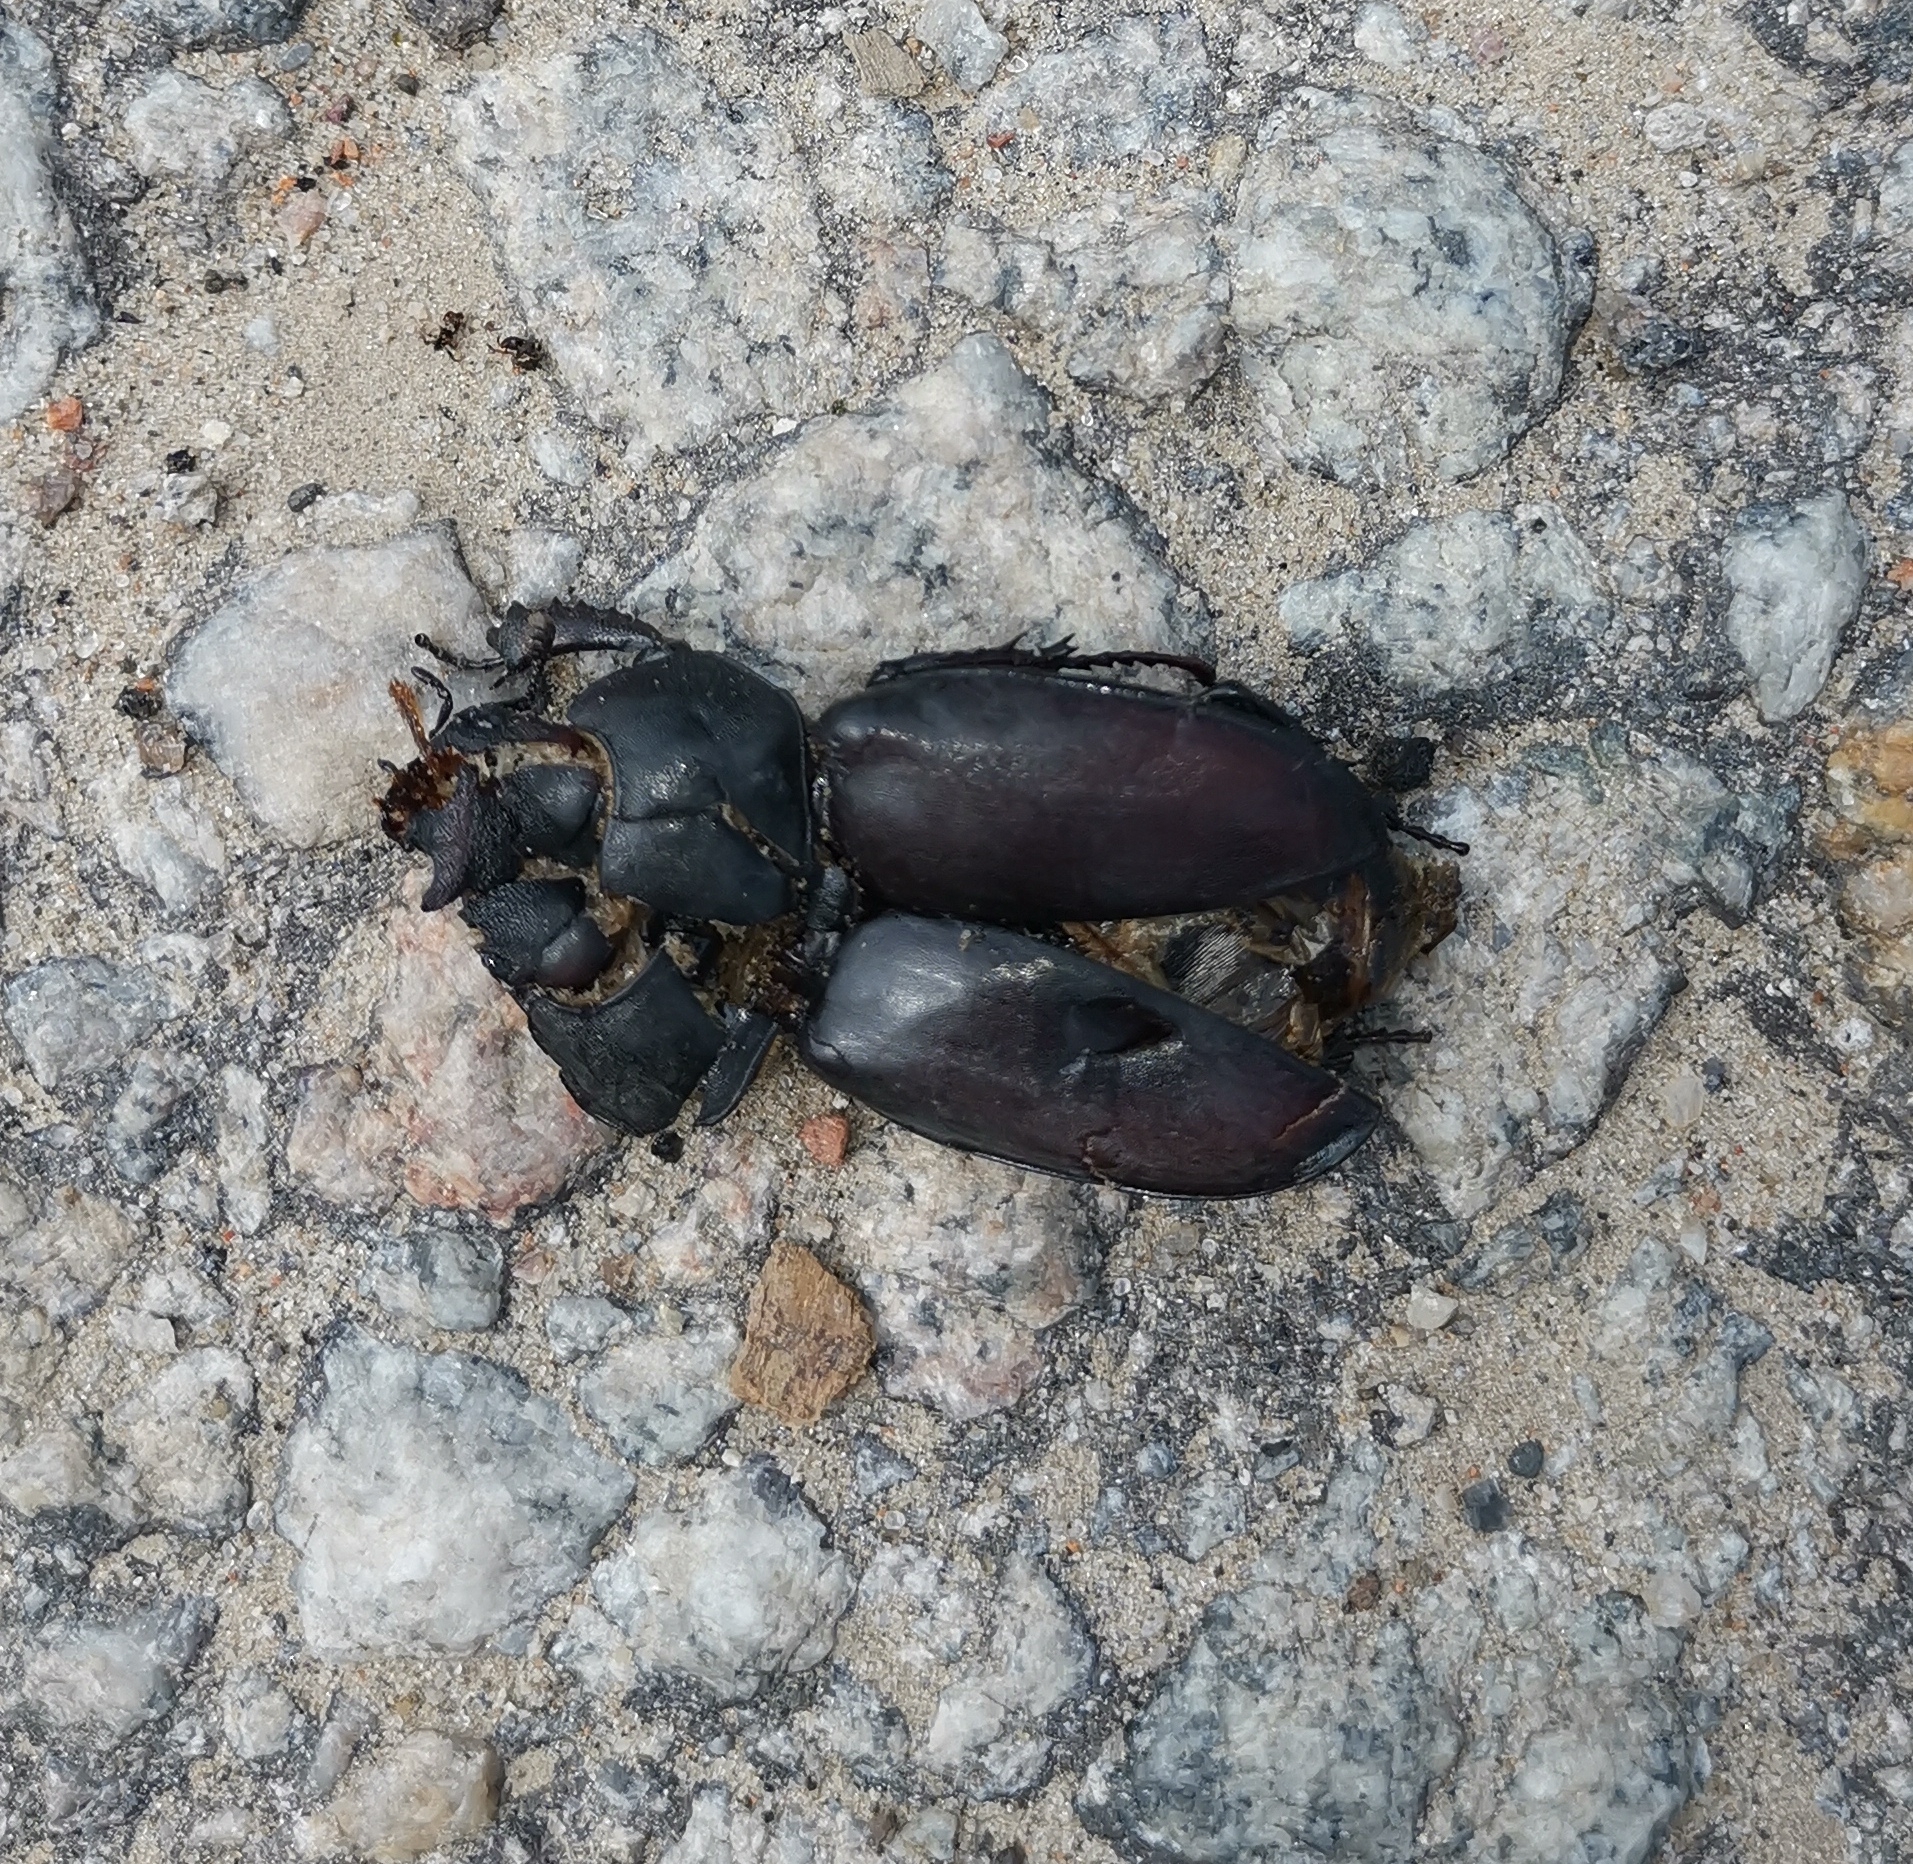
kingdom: Animalia
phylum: Arthropoda
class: Insecta
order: Coleoptera
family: Lucanidae
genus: Lucanus
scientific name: Lucanus cervus
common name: Stag beetle
